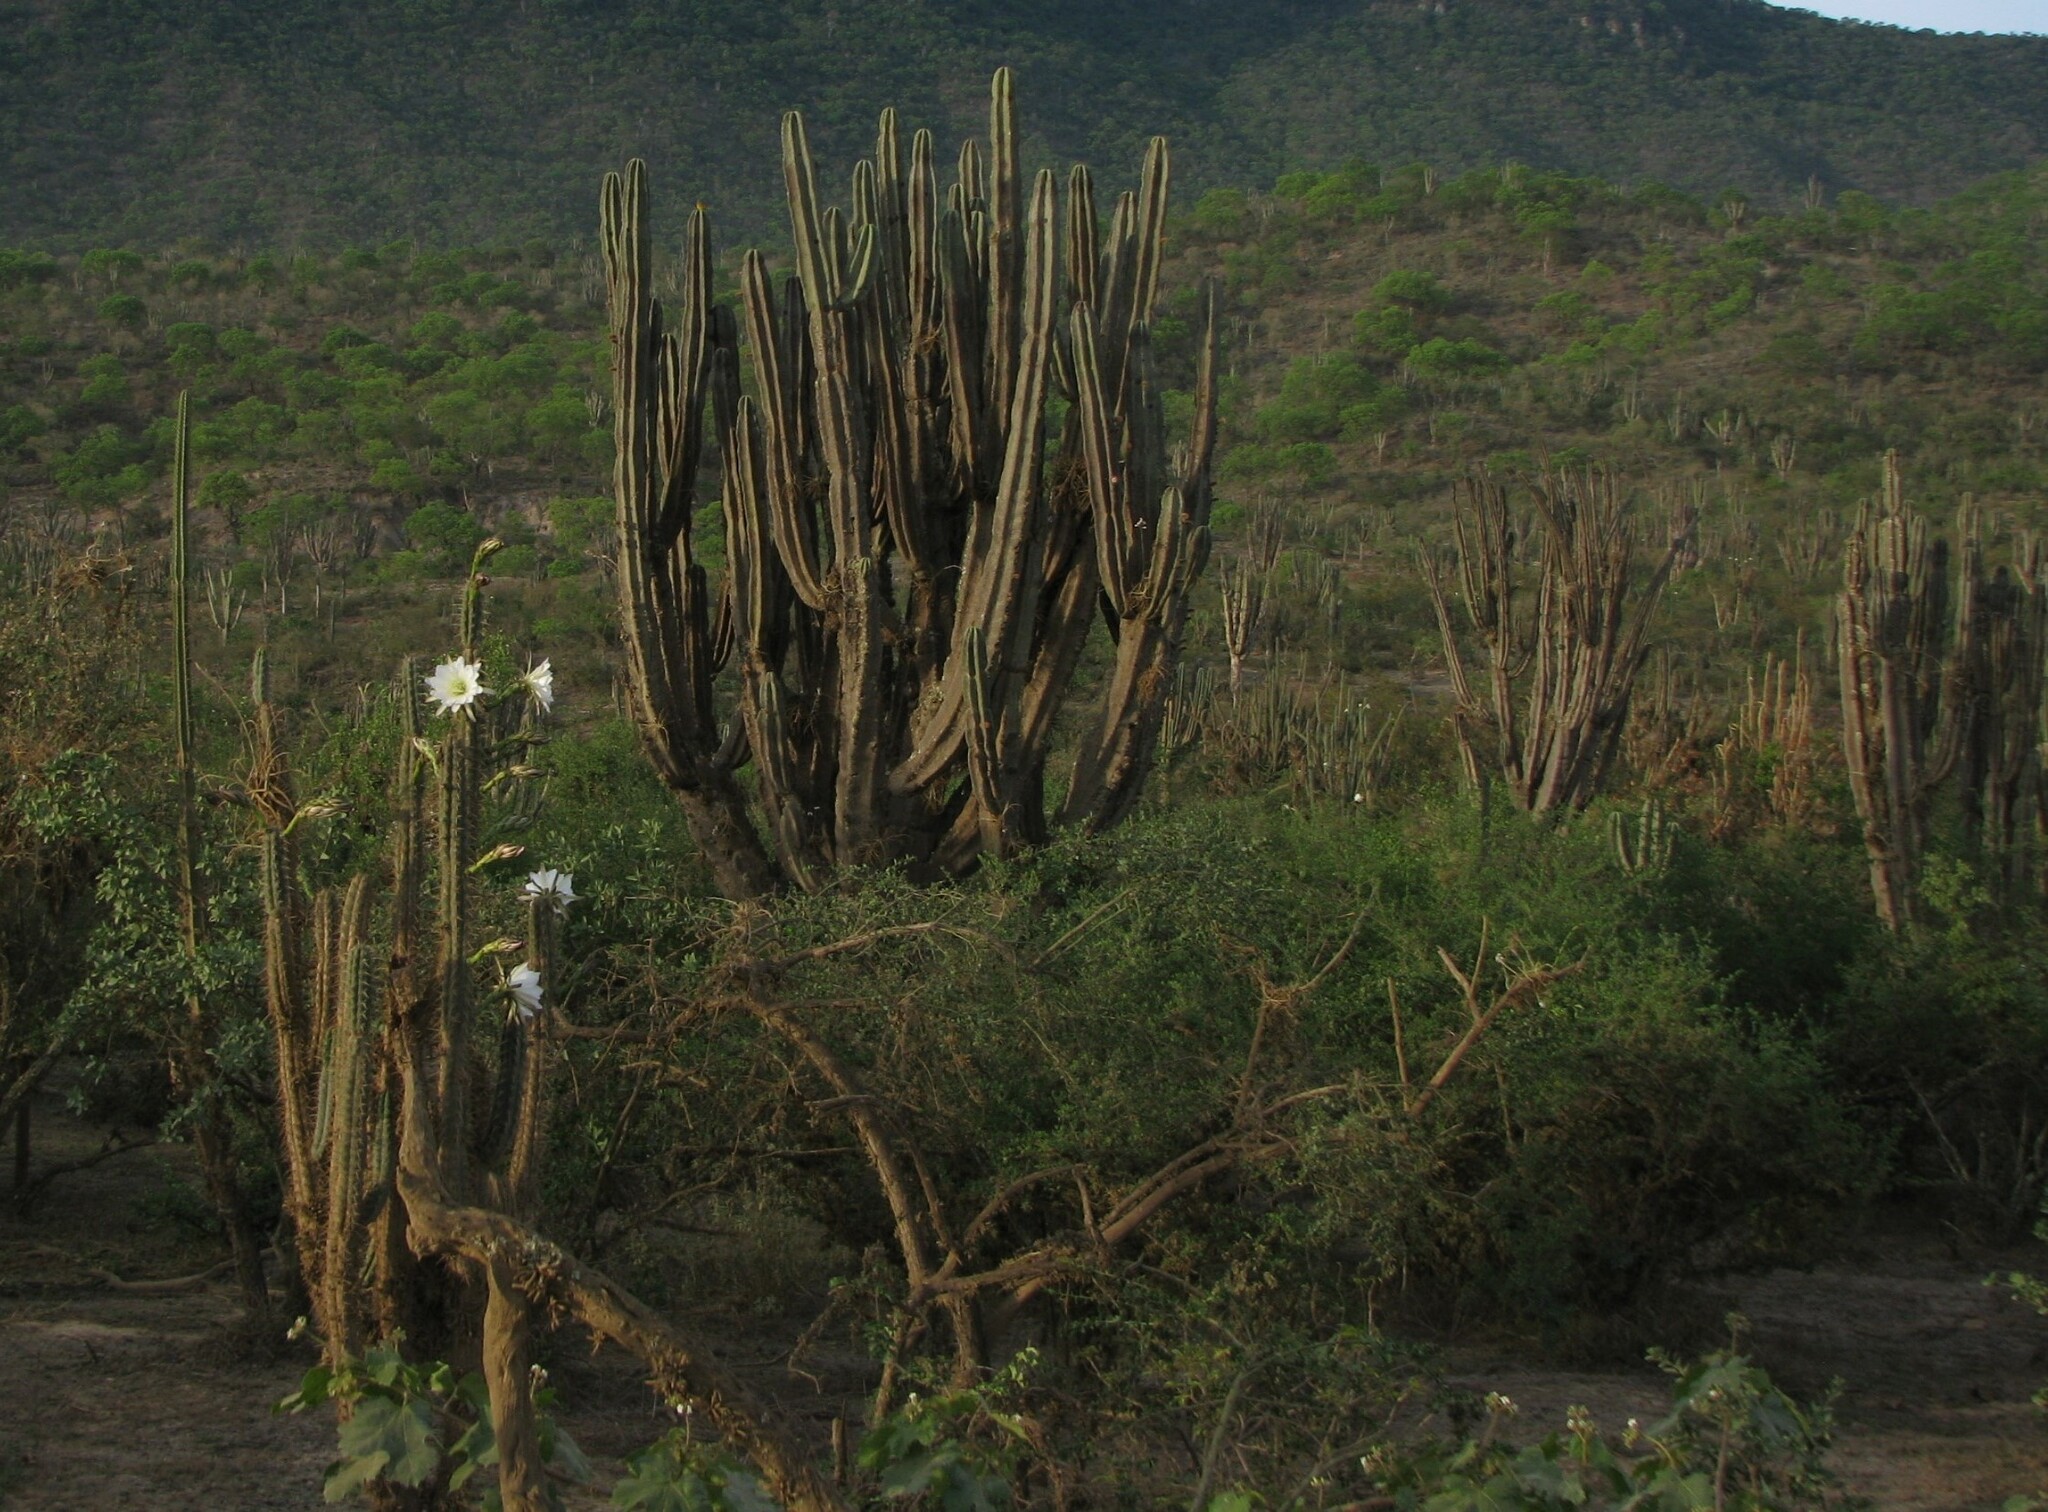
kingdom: Plantae
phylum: Tracheophyta
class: Magnoliopsida
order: Caryophyllales
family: Cactaceae
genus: Harrisia
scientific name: Harrisia tetracantha
